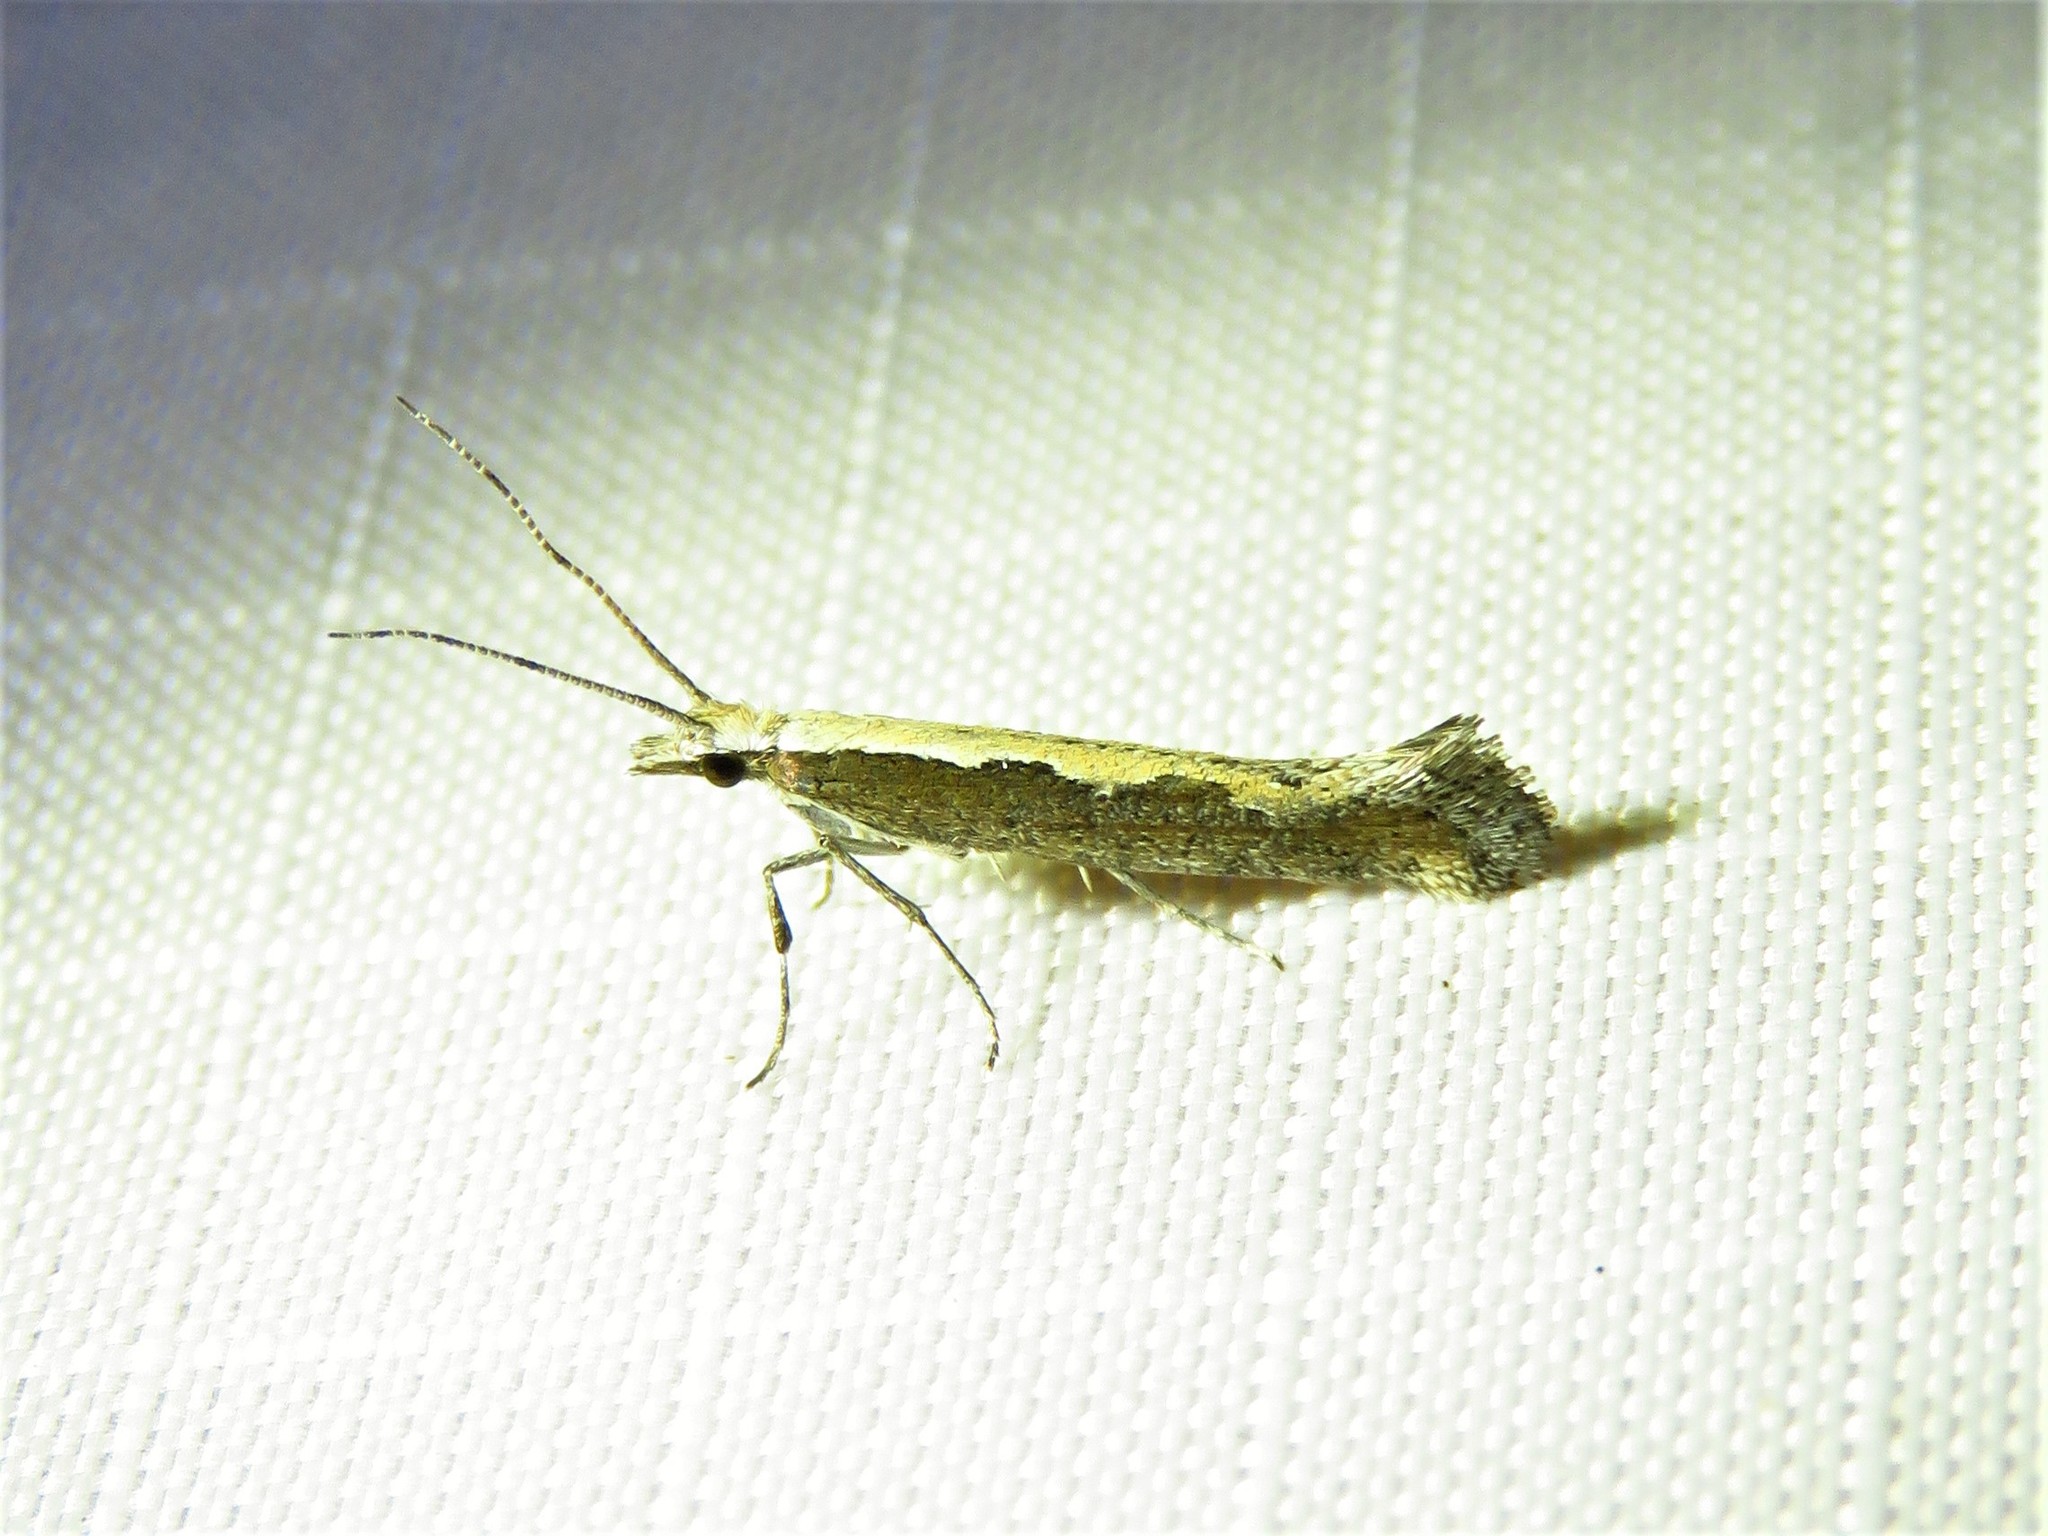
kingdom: Animalia
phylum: Arthropoda
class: Insecta
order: Lepidoptera
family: Plutellidae
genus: Plutella
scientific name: Plutella xylostella
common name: Diamond-back moth
